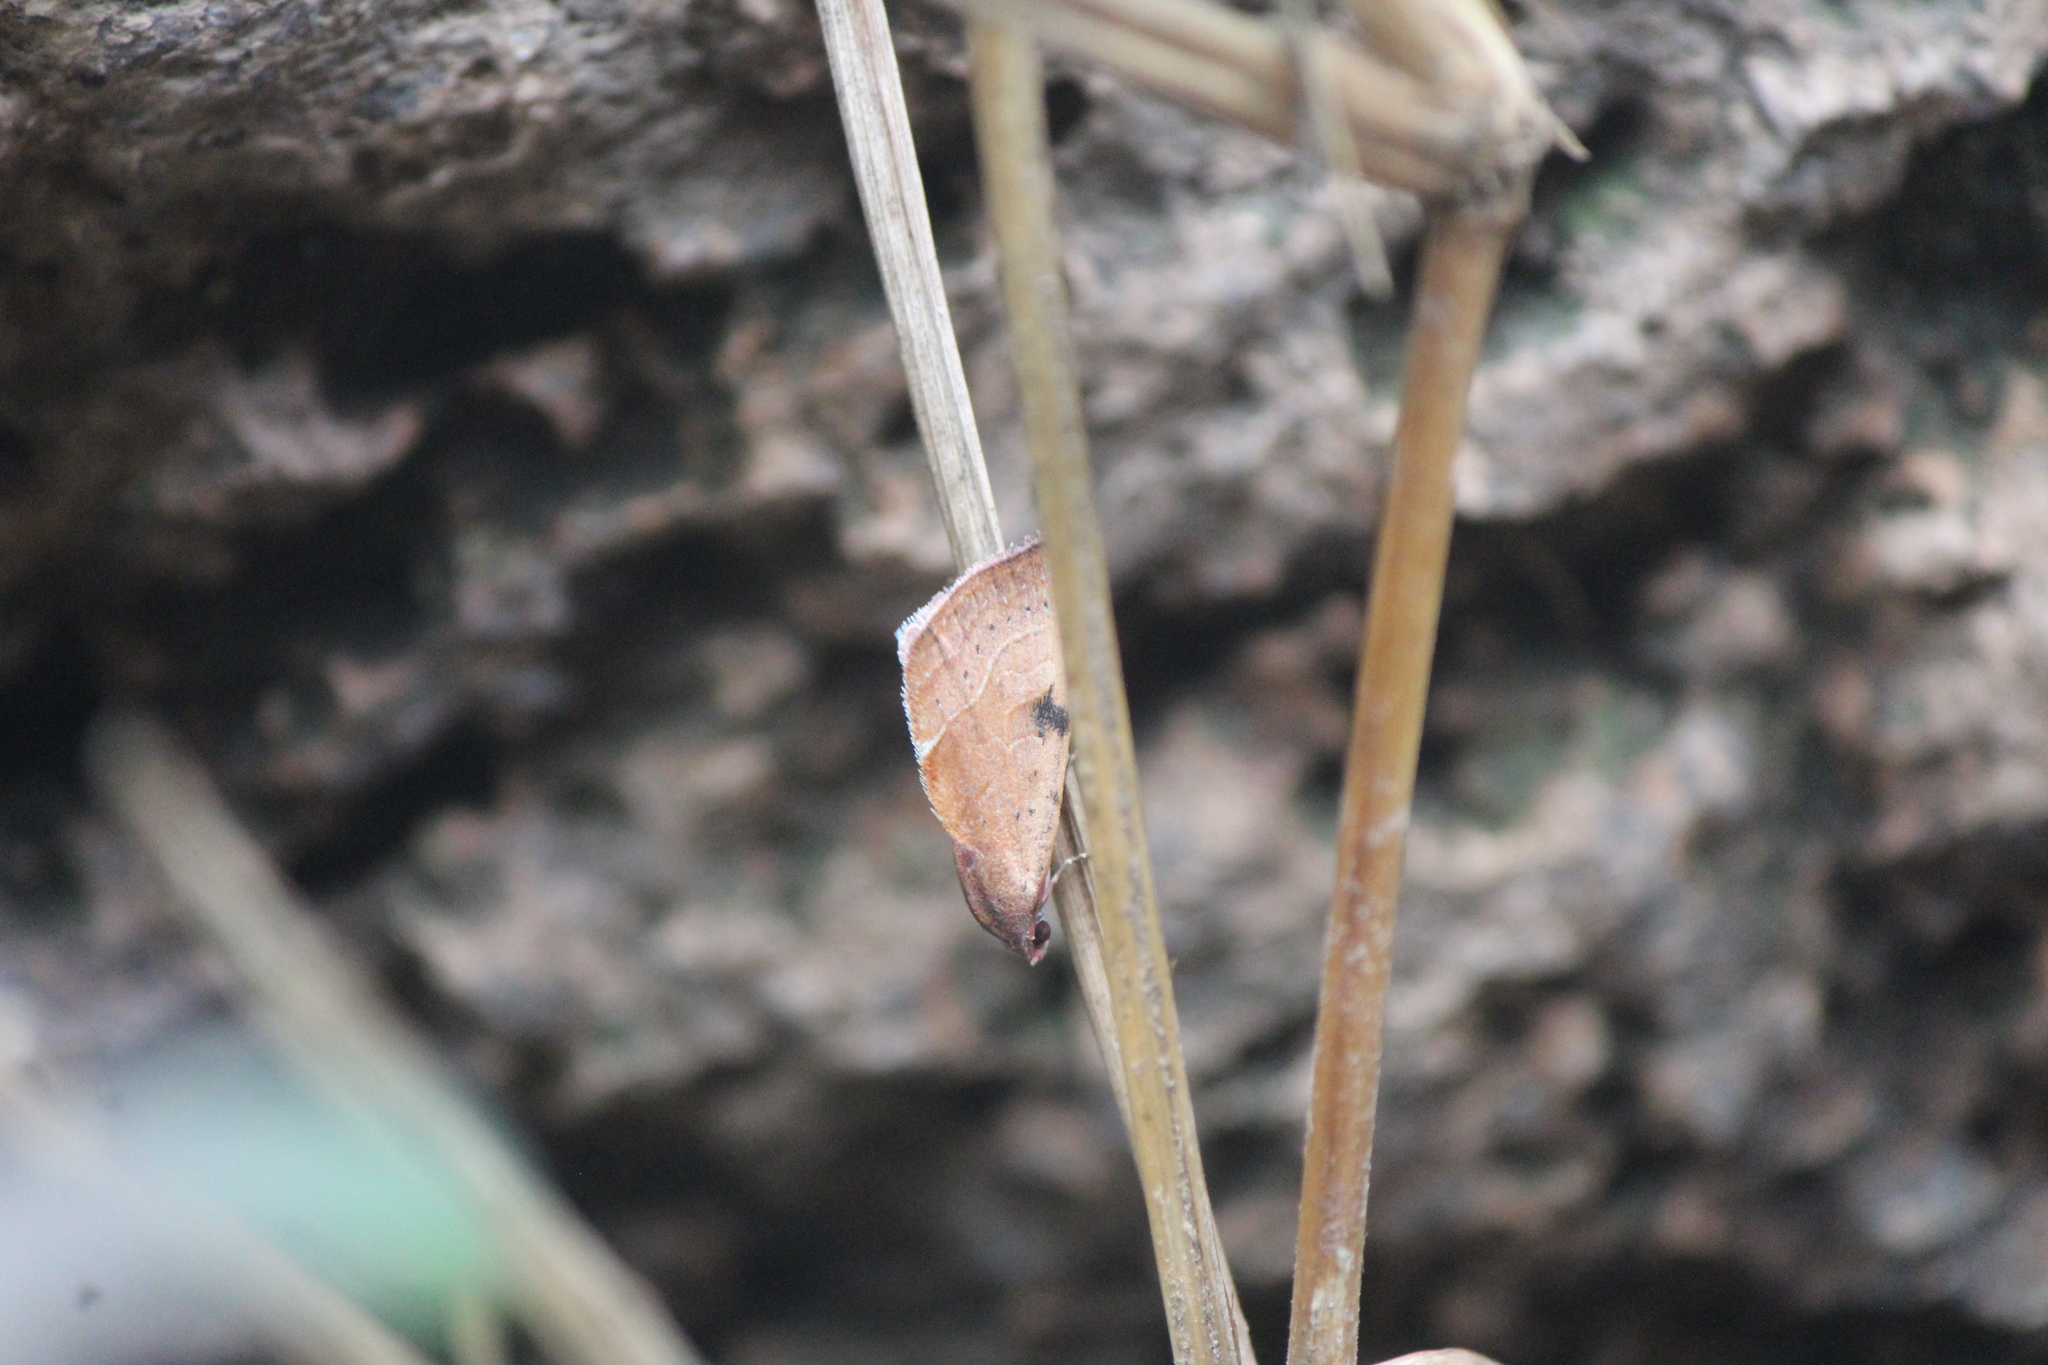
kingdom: Animalia
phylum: Arthropoda
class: Insecta
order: Lepidoptera
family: Noctuidae
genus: Galgula
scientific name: Galgula partita
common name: Wedgeling
